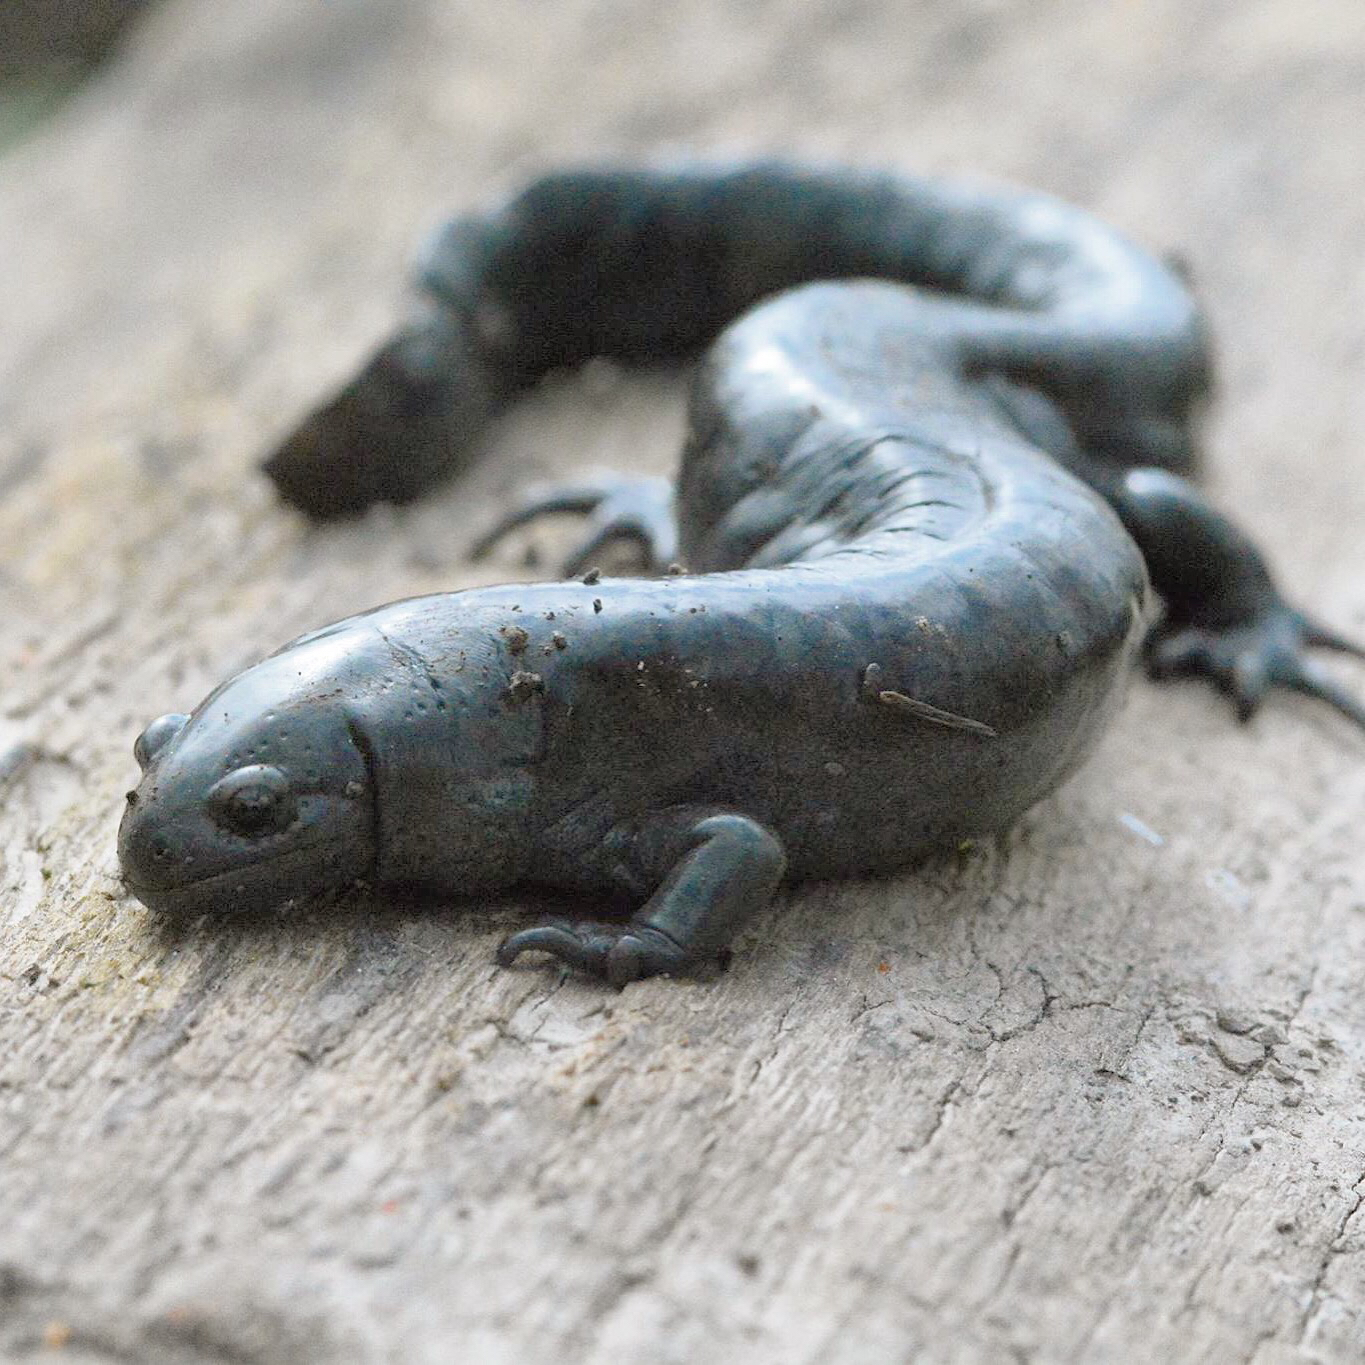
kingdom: Animalia
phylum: Chordata
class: Amphibia
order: Caudata
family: Ambystomatidae
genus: Ambystoma
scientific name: Ambystoma texanum
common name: Small-mouth salamander
